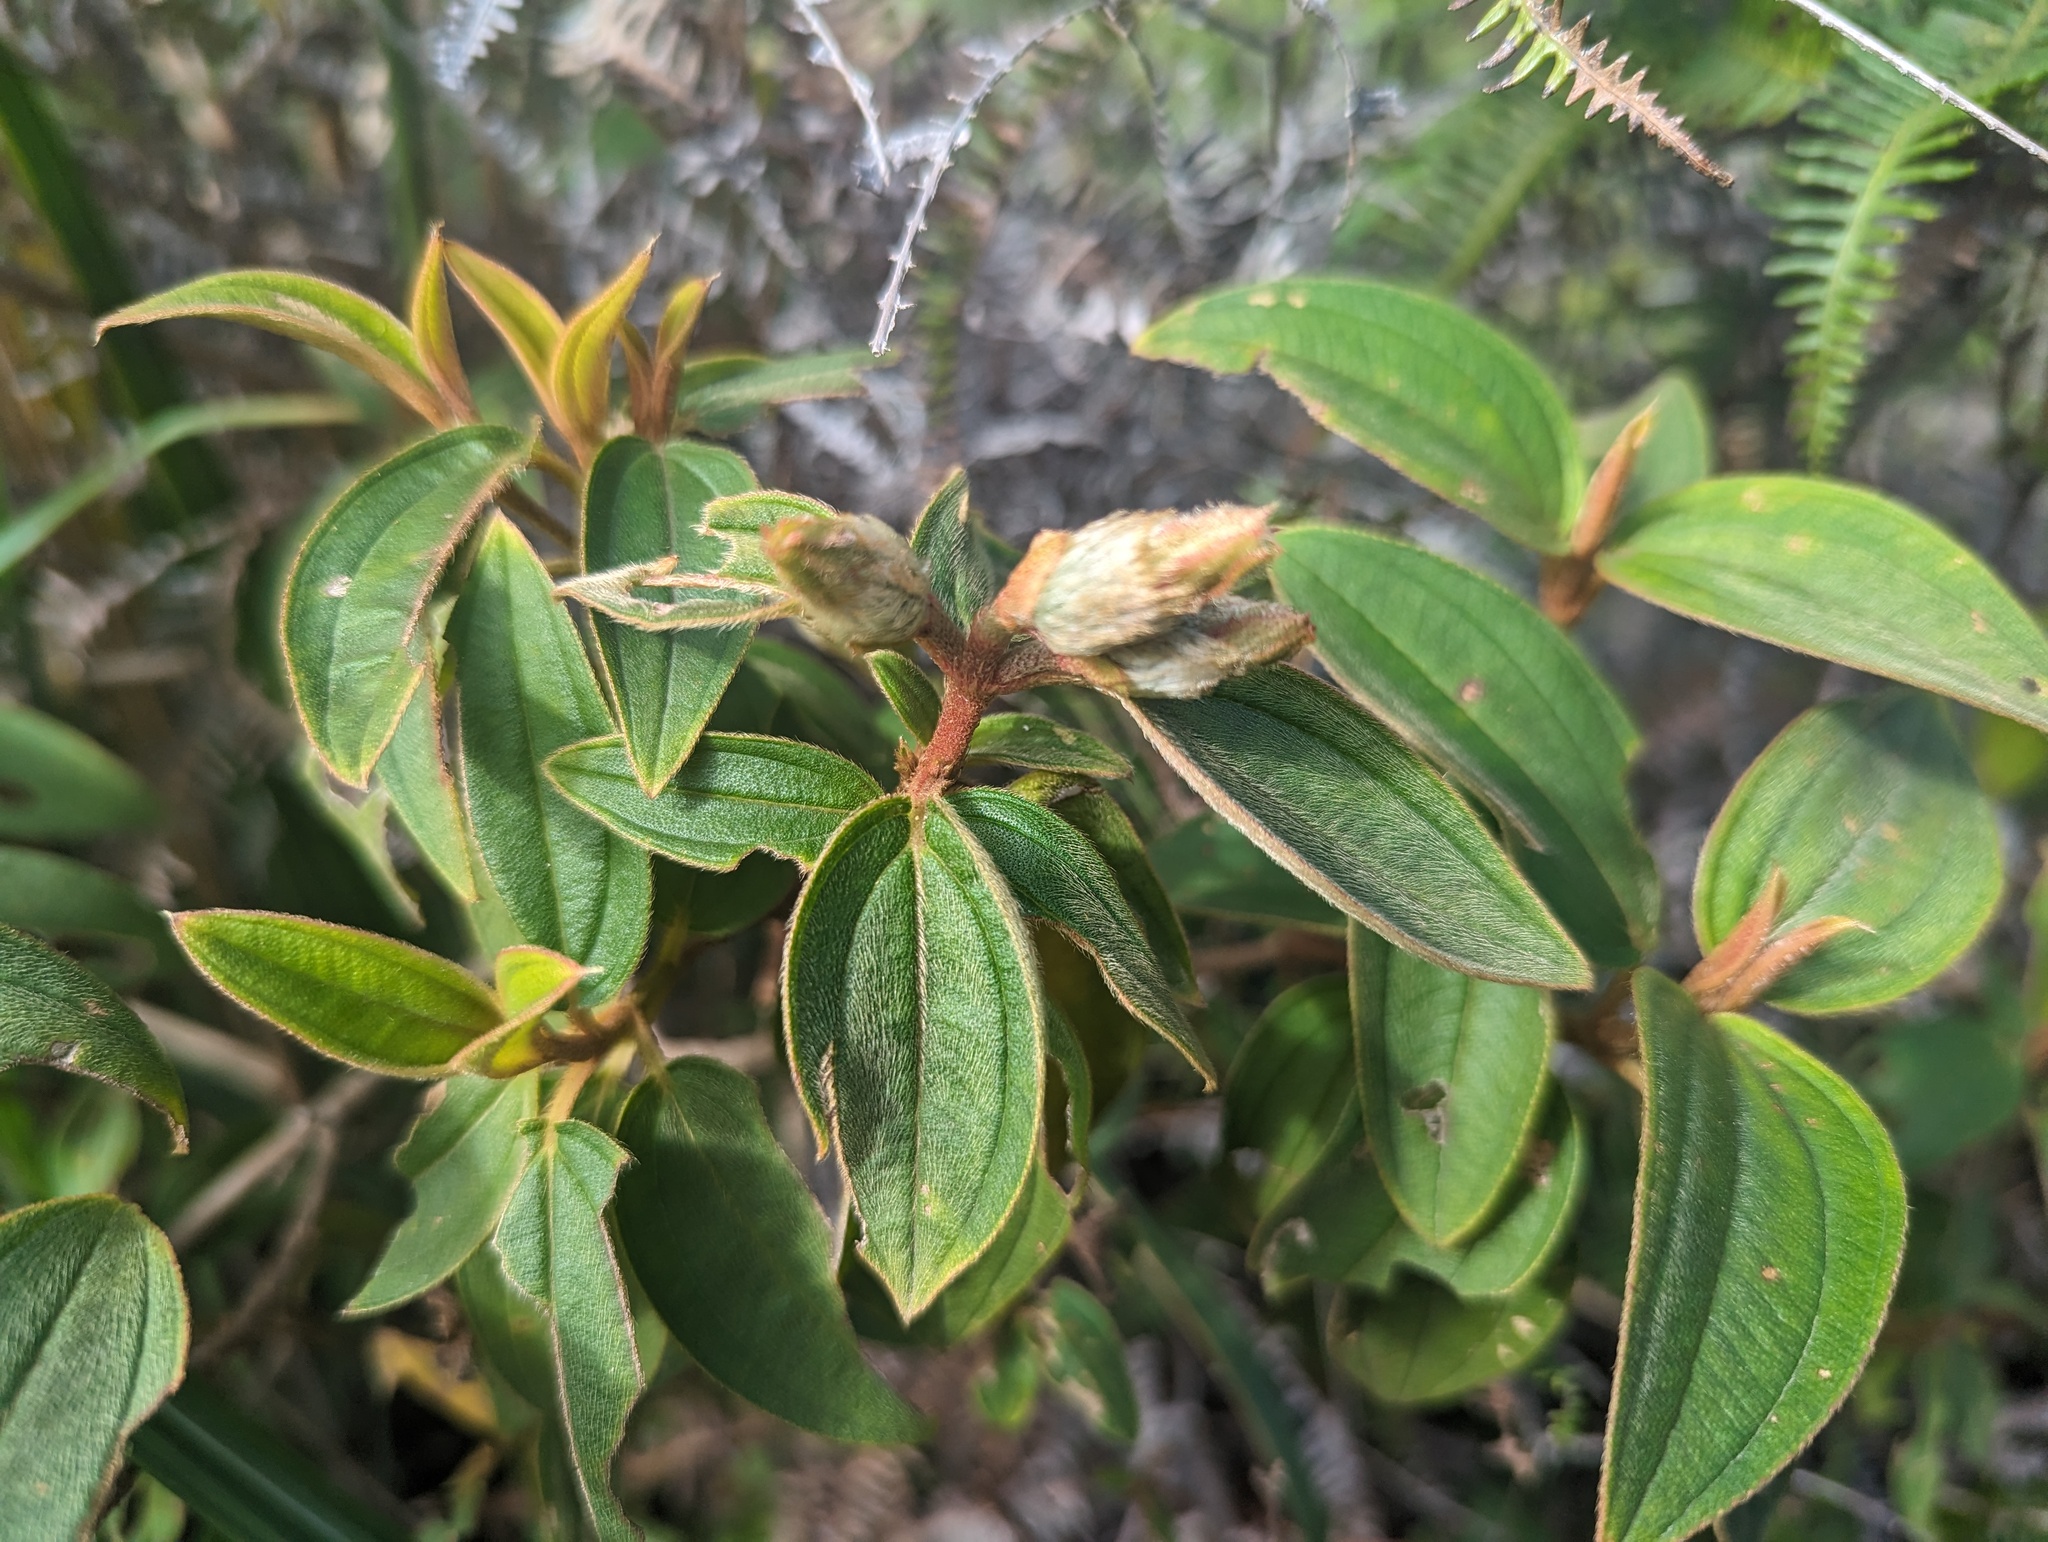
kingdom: Plantae
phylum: Tracheophyta
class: Magnoliopsida
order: Myrtales
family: Melastomataceae
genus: Melastoma
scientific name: Melastoma malabathricum
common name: Indian-rhododendron
